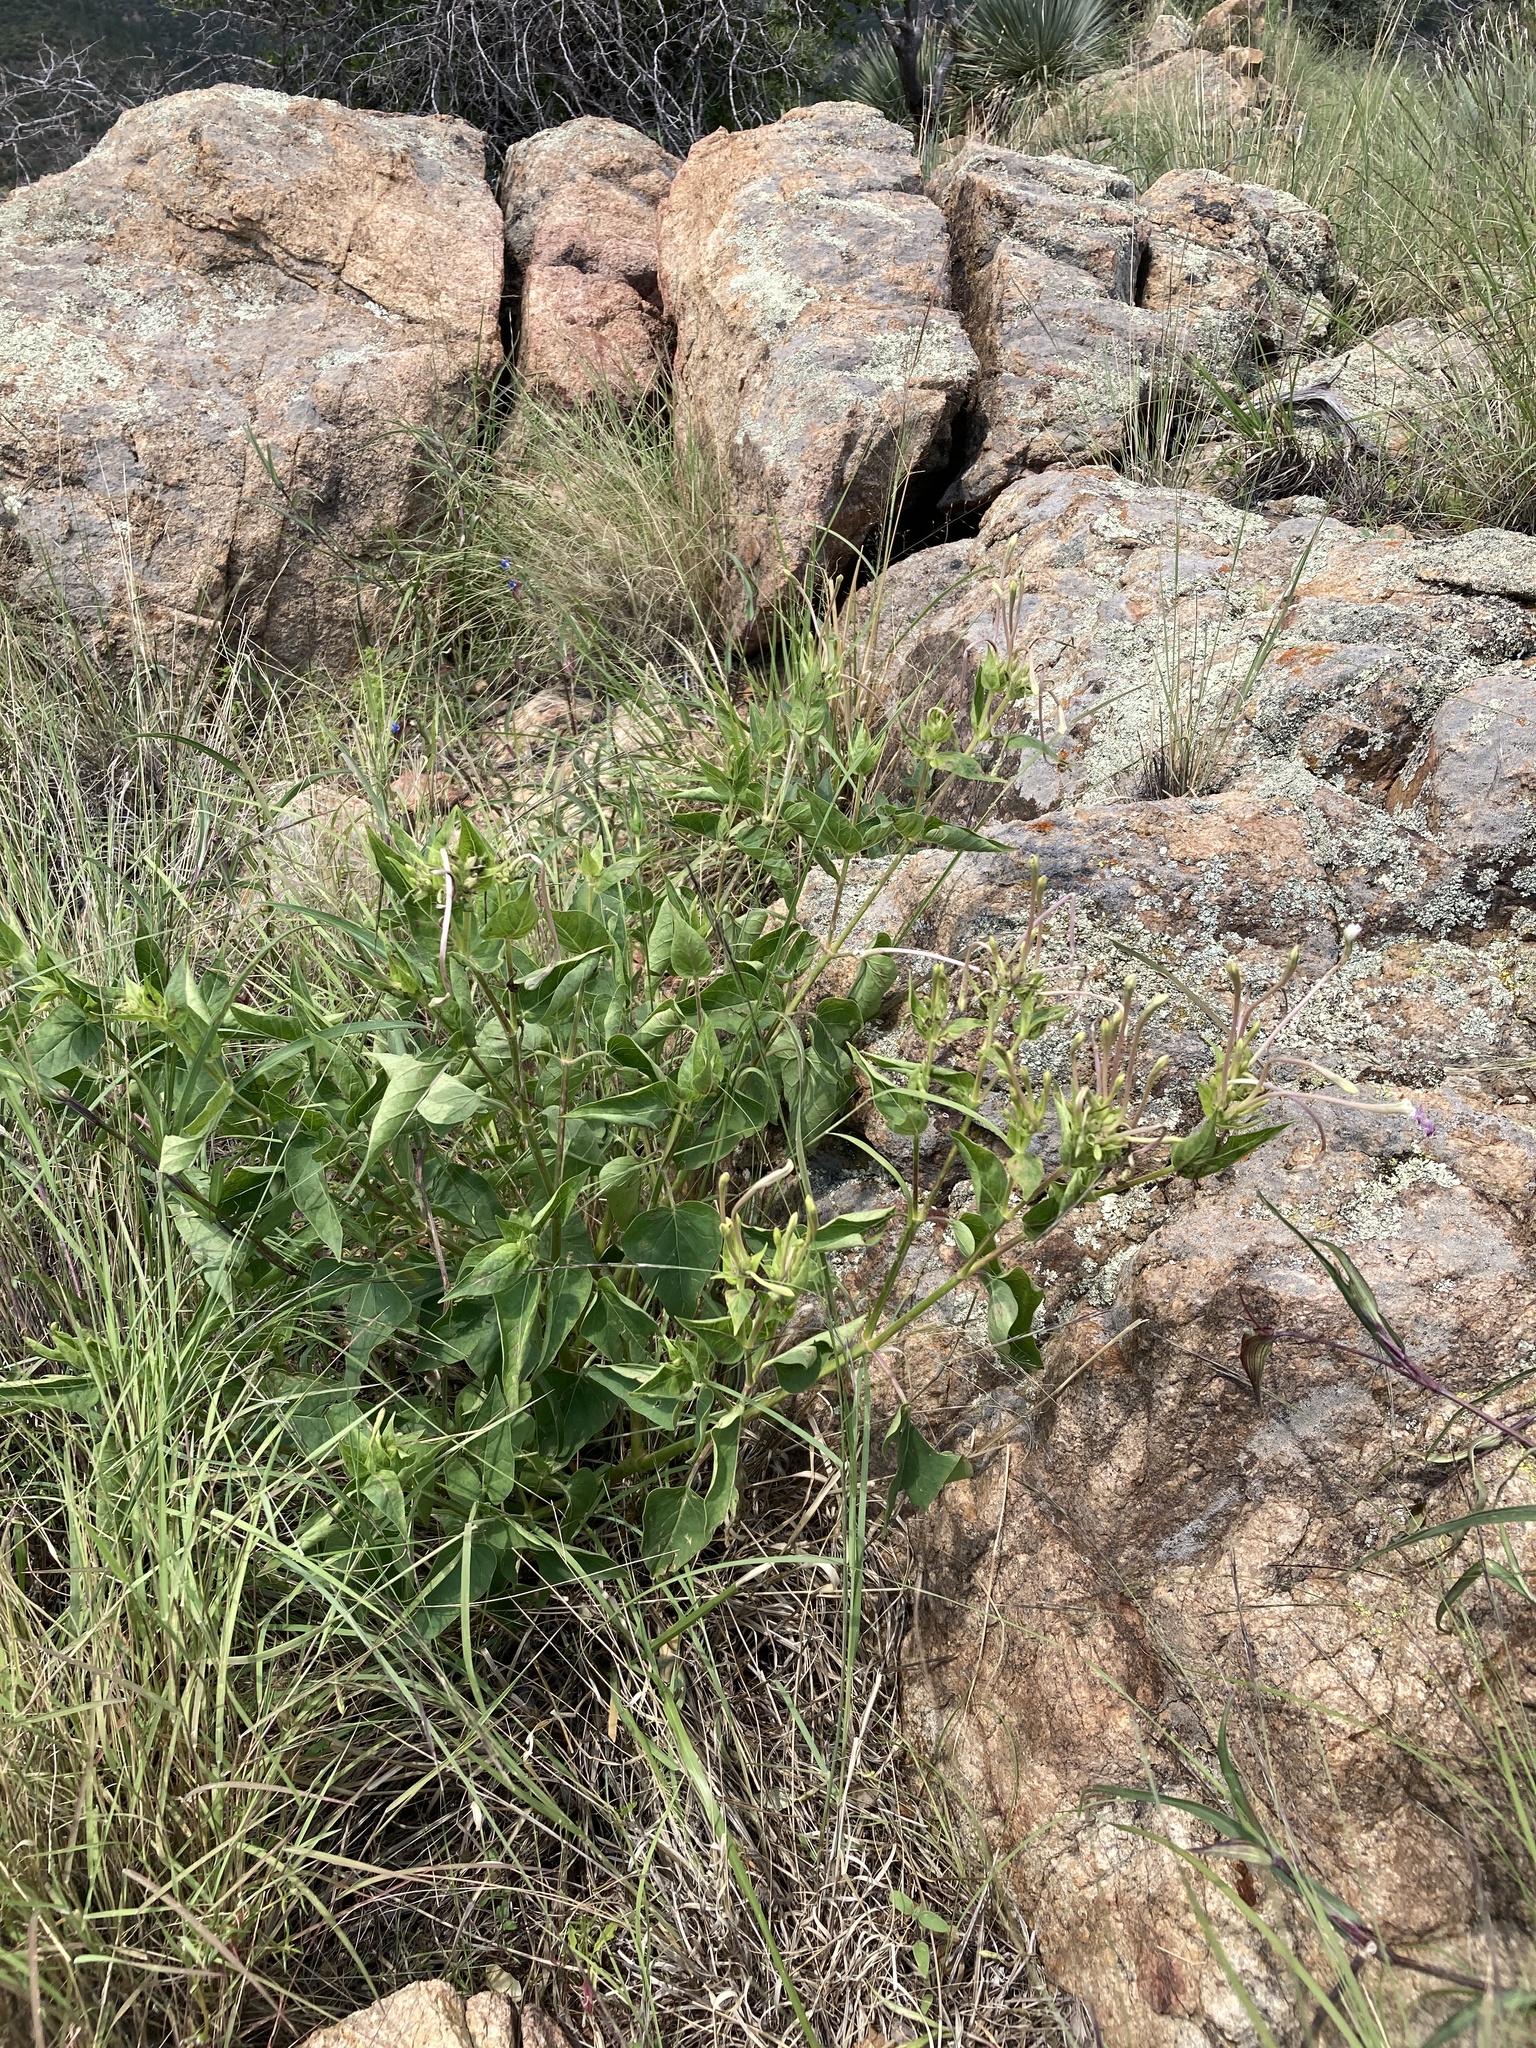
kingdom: Plantae
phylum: Tracheophyta
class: Magnoliopsida
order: Caryophyllales
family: Nyctaginaceae
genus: Mirabilis
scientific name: Mirabilis longiflora
